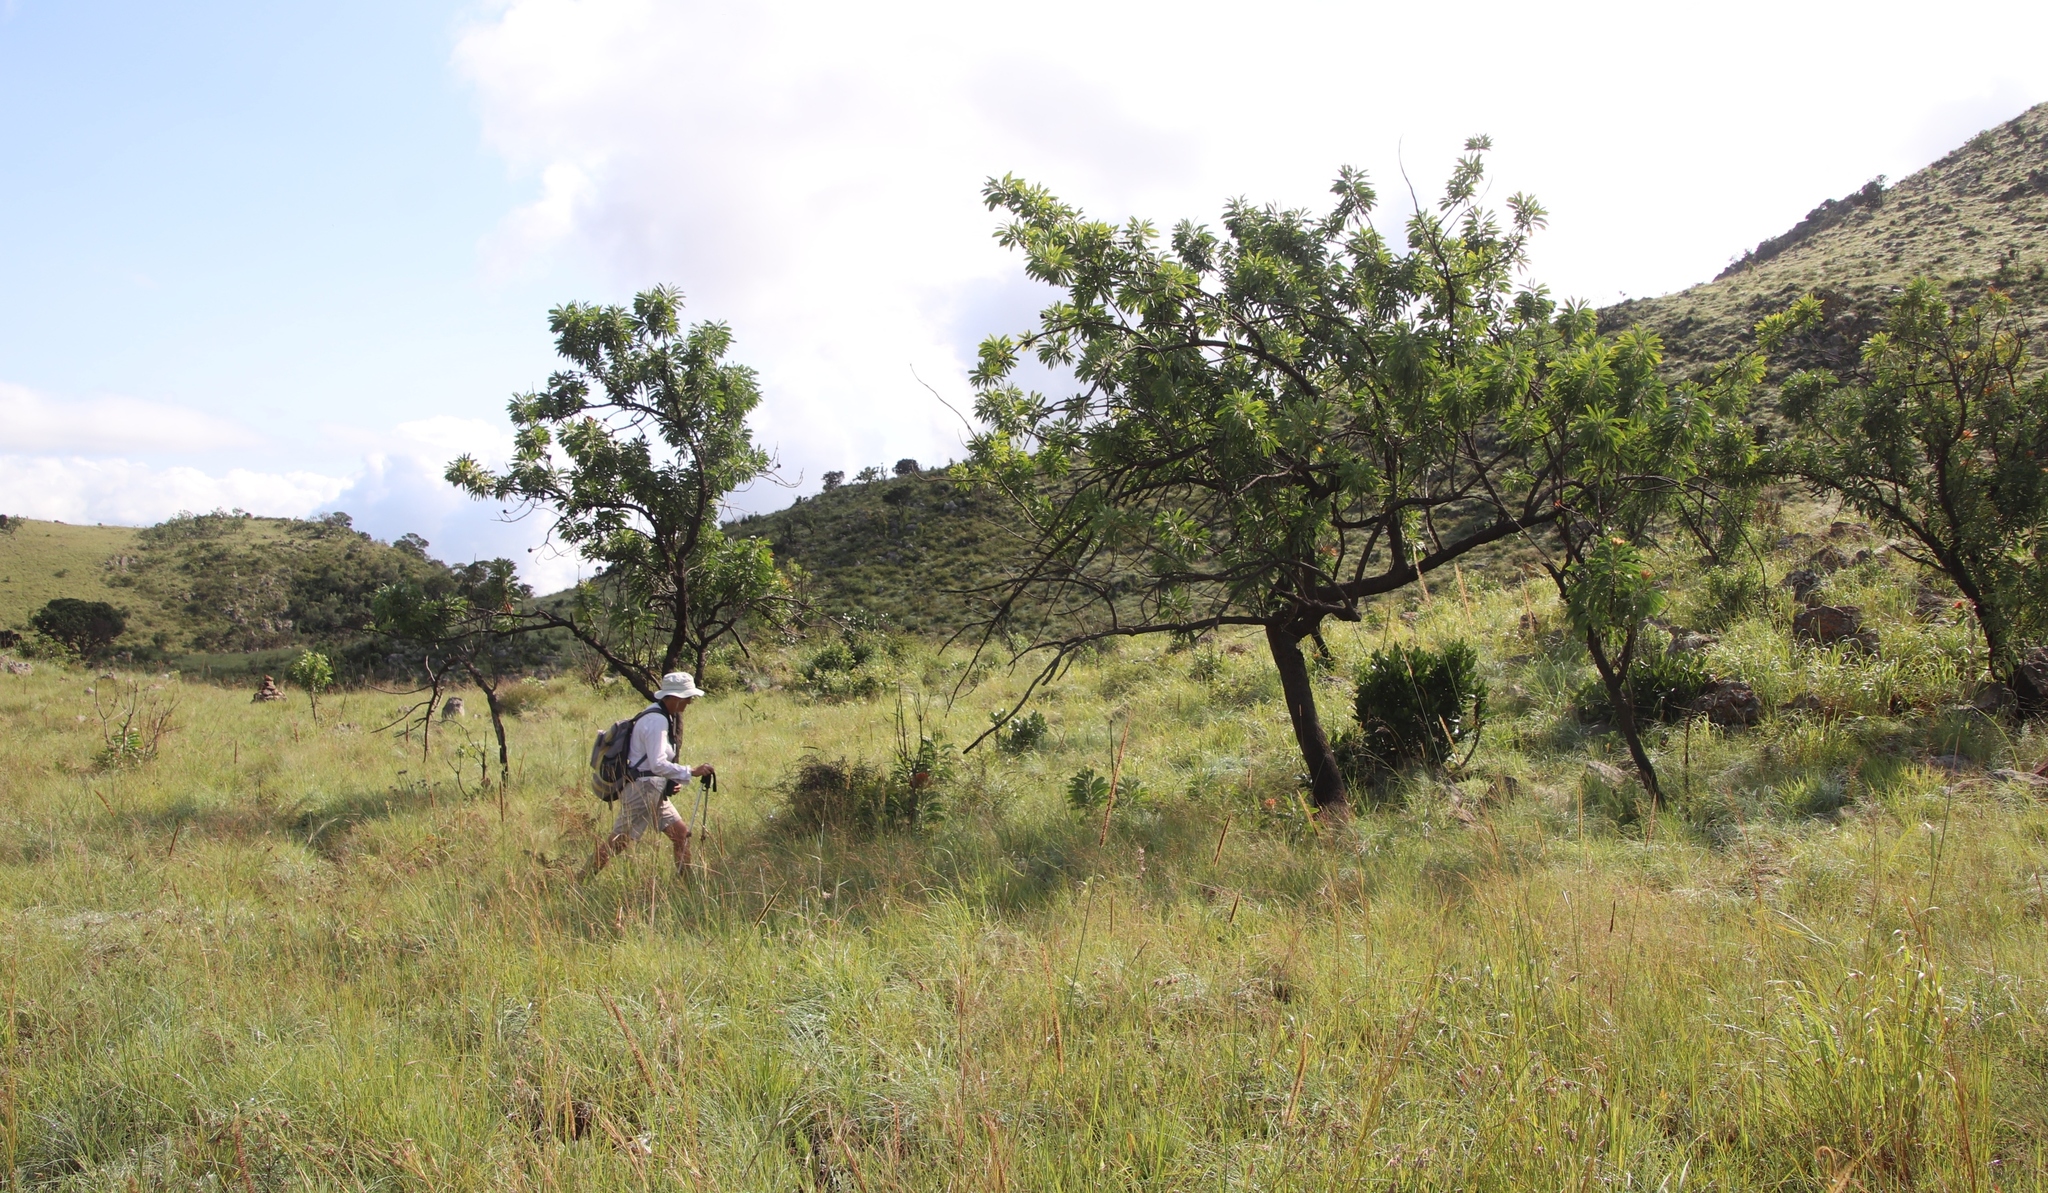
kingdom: Plantae
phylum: Tracheophyta
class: Magnoliopsida
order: Proteales
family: Proteaceae
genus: Protea
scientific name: Protea caffra
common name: Common sugarbush
